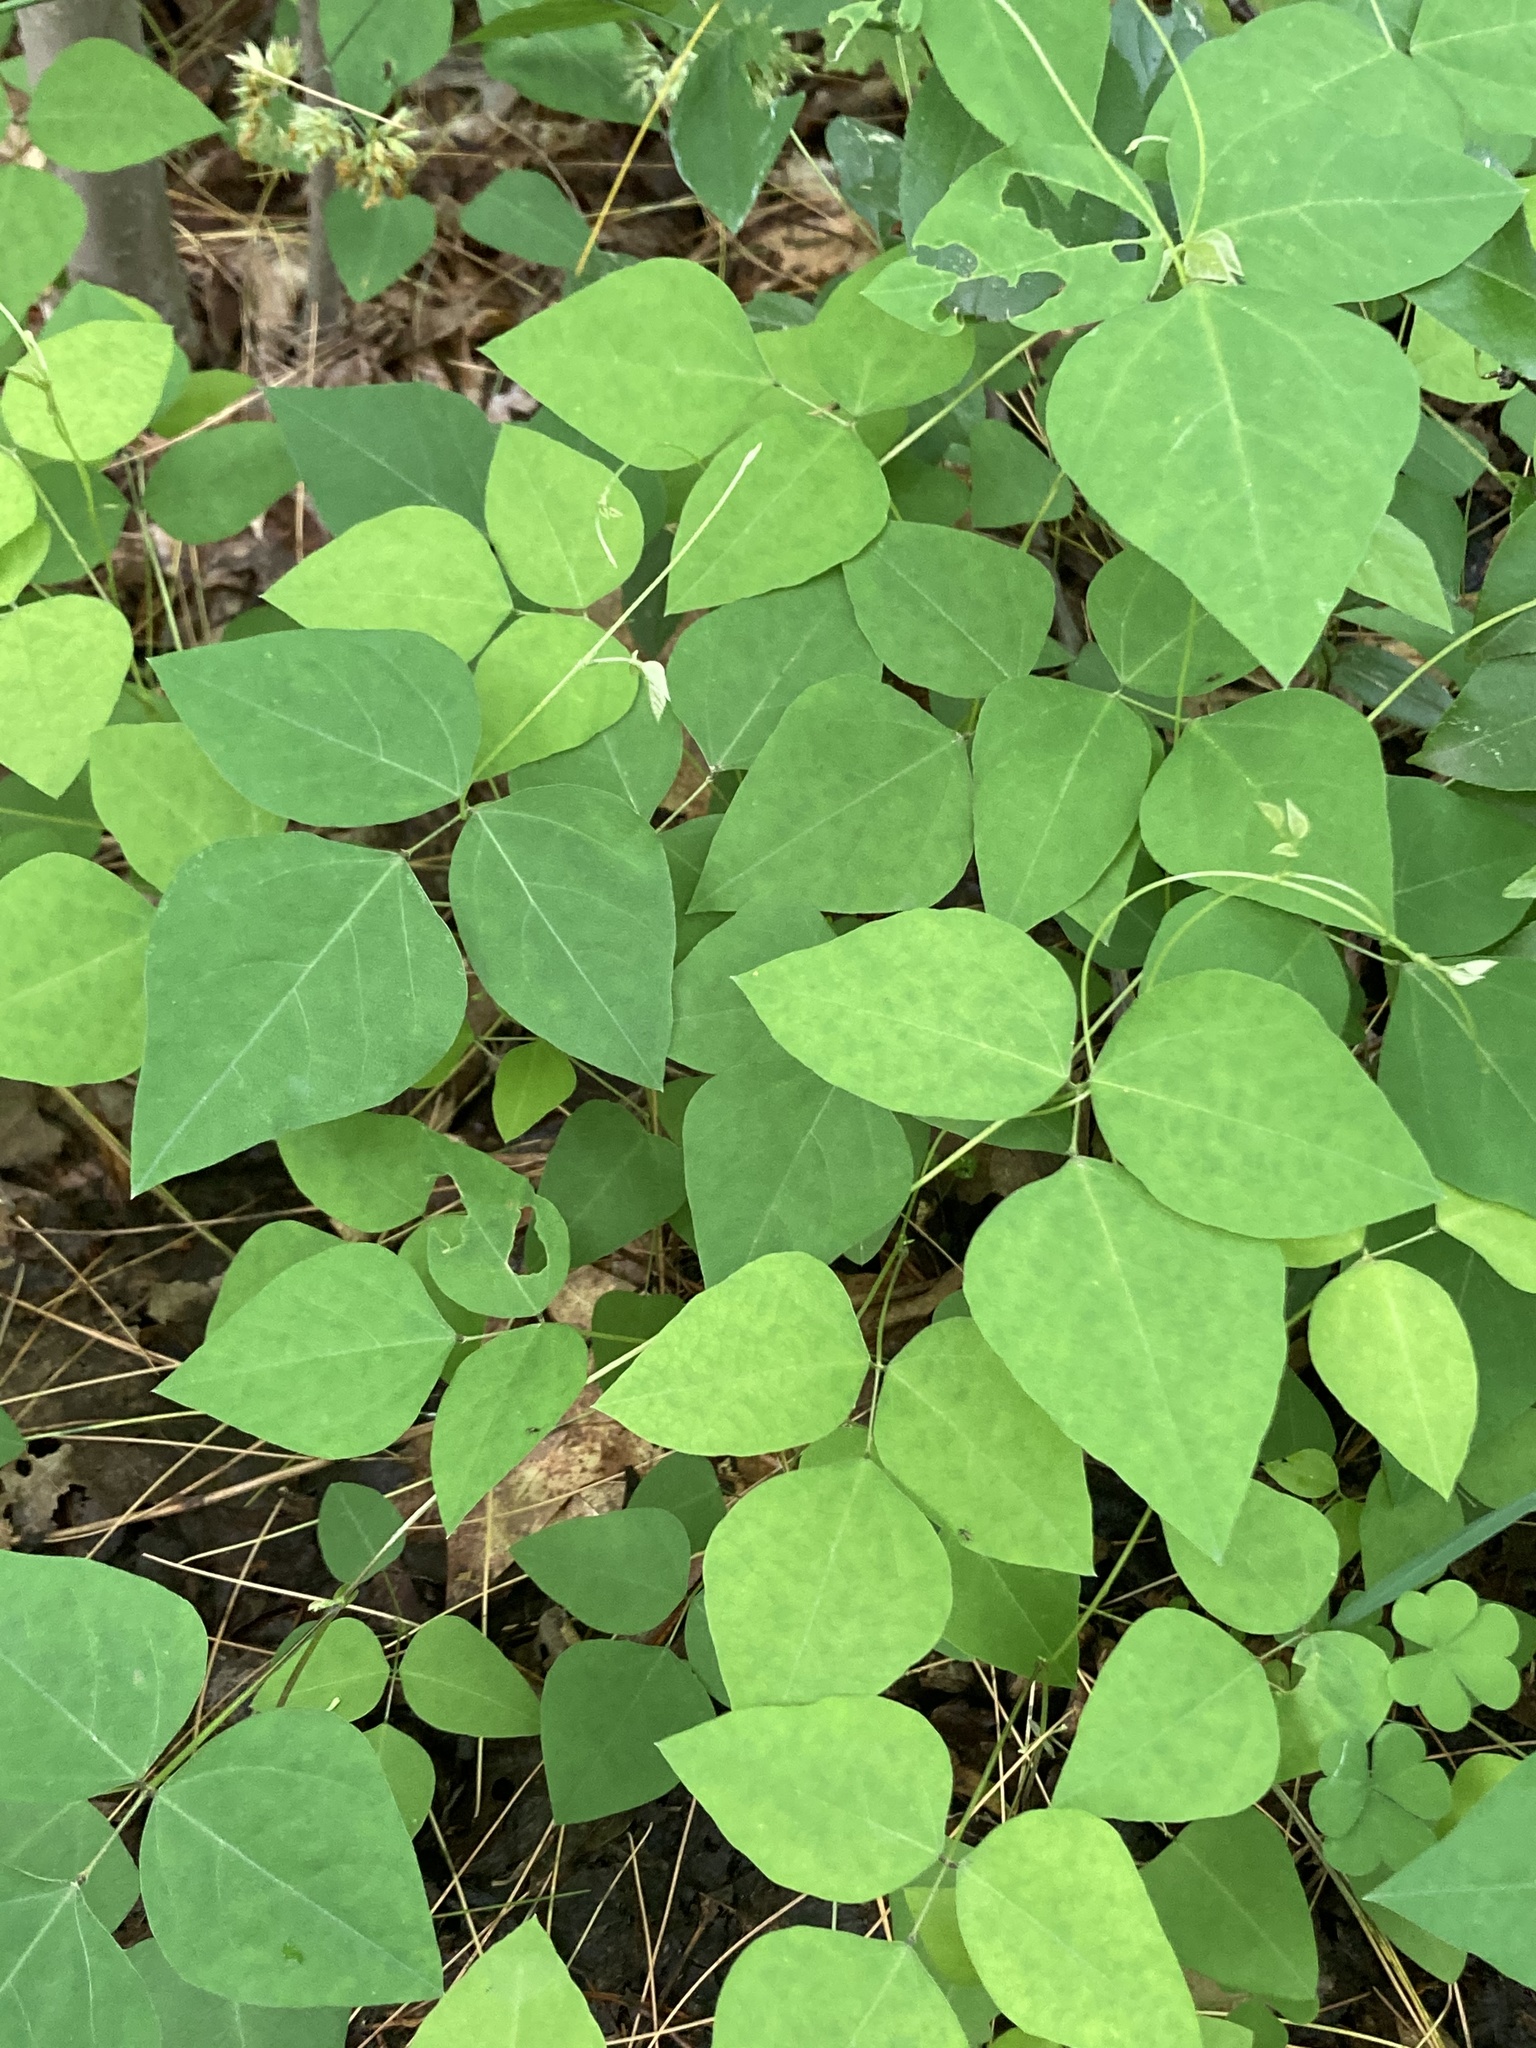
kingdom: Plantae
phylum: Tracheophyta
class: Magnoliopsida
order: Fabales
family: Fabaceae
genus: Amphicarpaea
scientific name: Amphicarpaea bracteata
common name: American hog peanut
